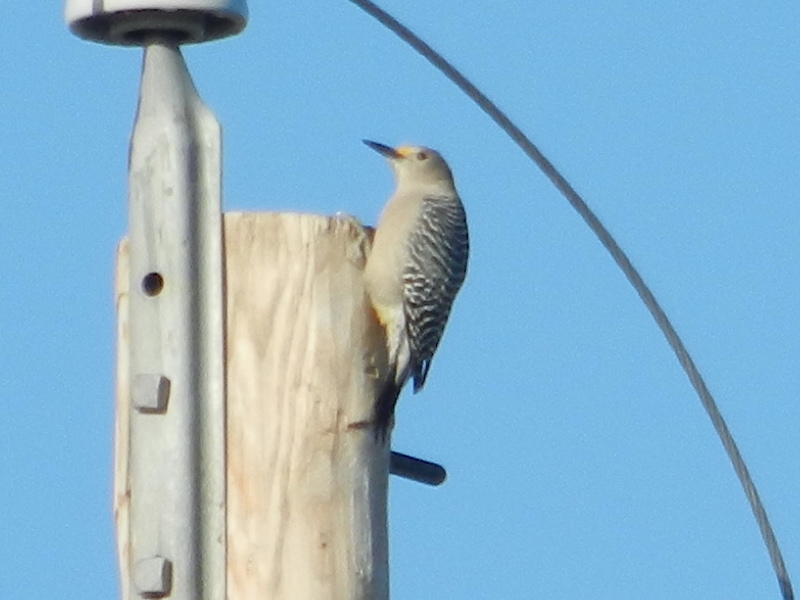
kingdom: Animalia
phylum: Chordata
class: Aves
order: Piciformes
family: Picidae
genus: Melanerpes
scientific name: Melanerpes aurifrons
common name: Golden-fronted woodpecker
